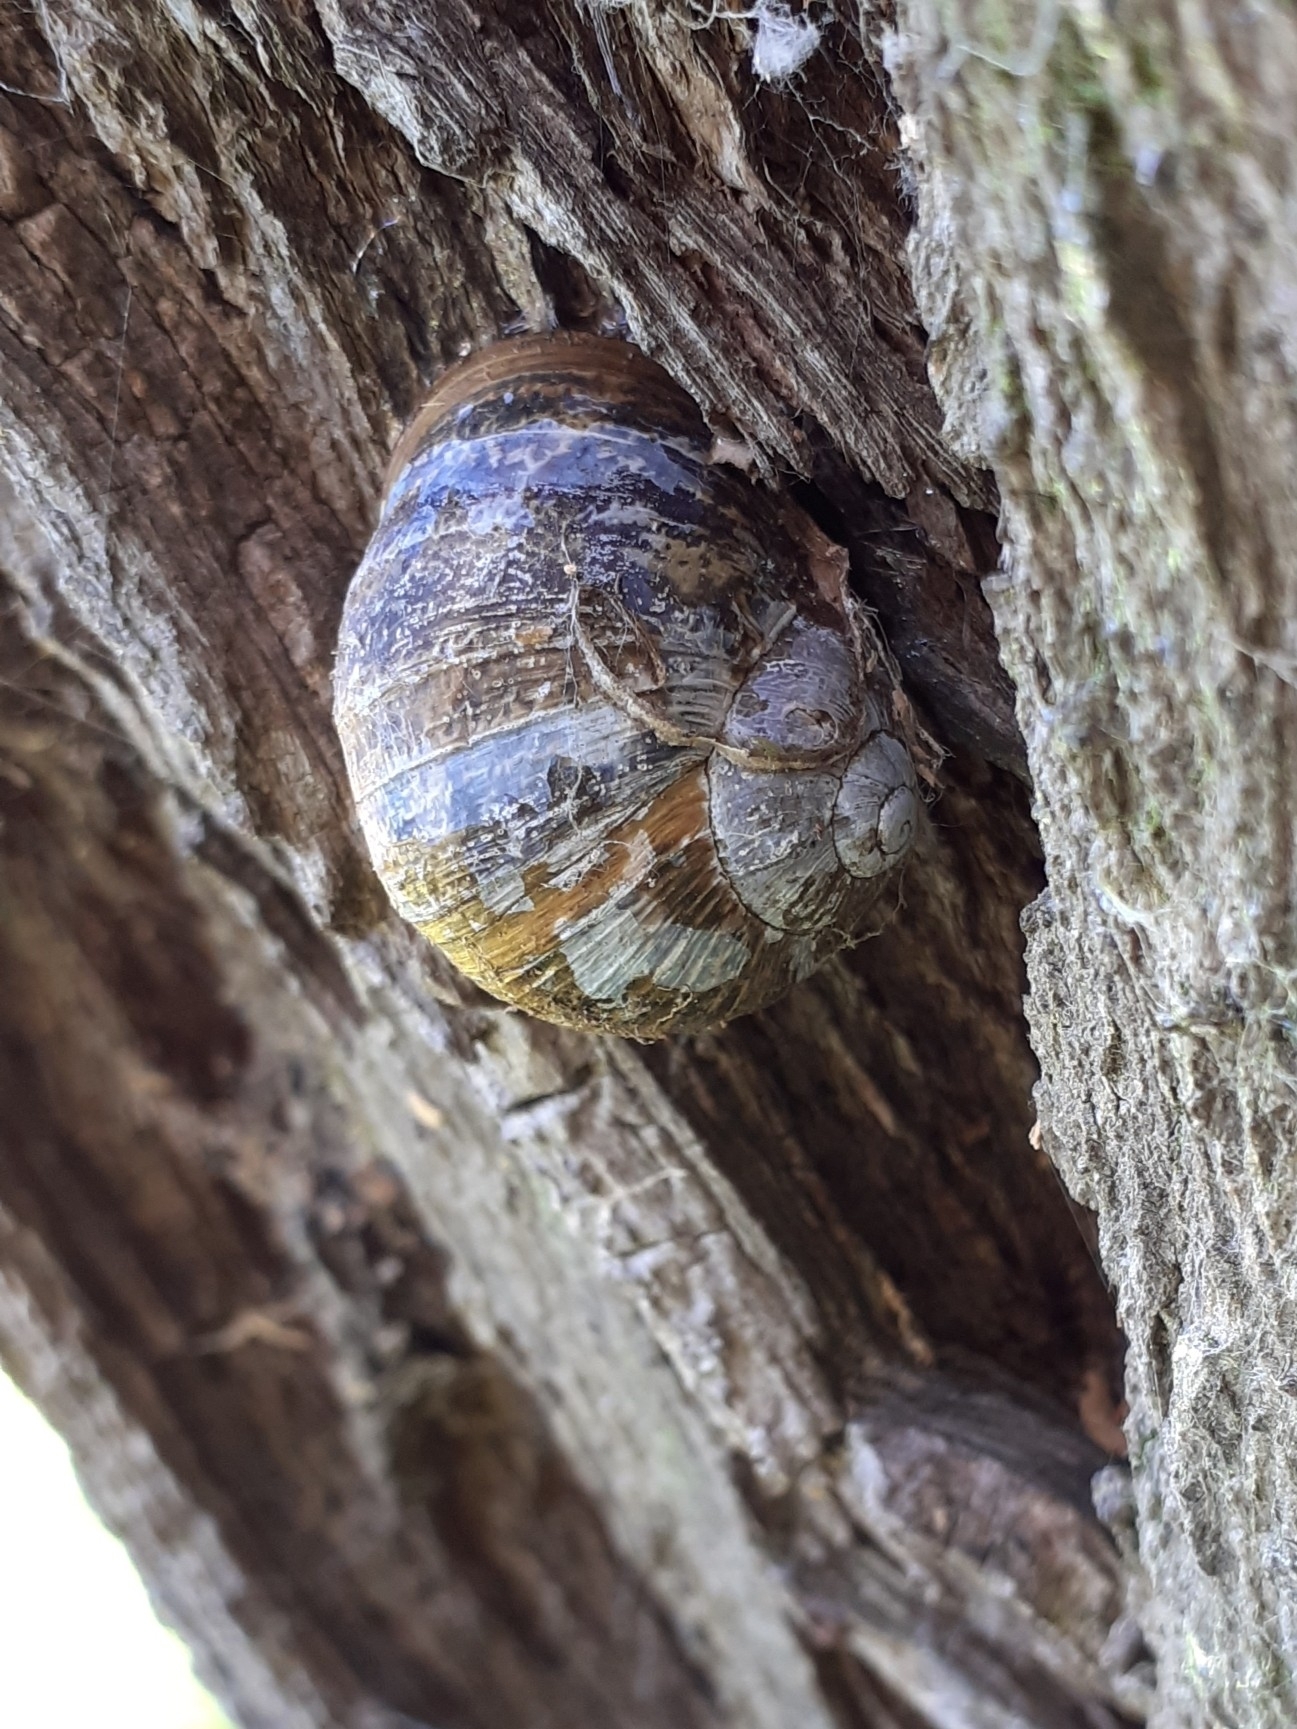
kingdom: Animalia
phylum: Mollusca
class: Gastropoda
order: Stylommatophora
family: Helicidae
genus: Cornu
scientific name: Cornu aspersum
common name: Brown garden snail
